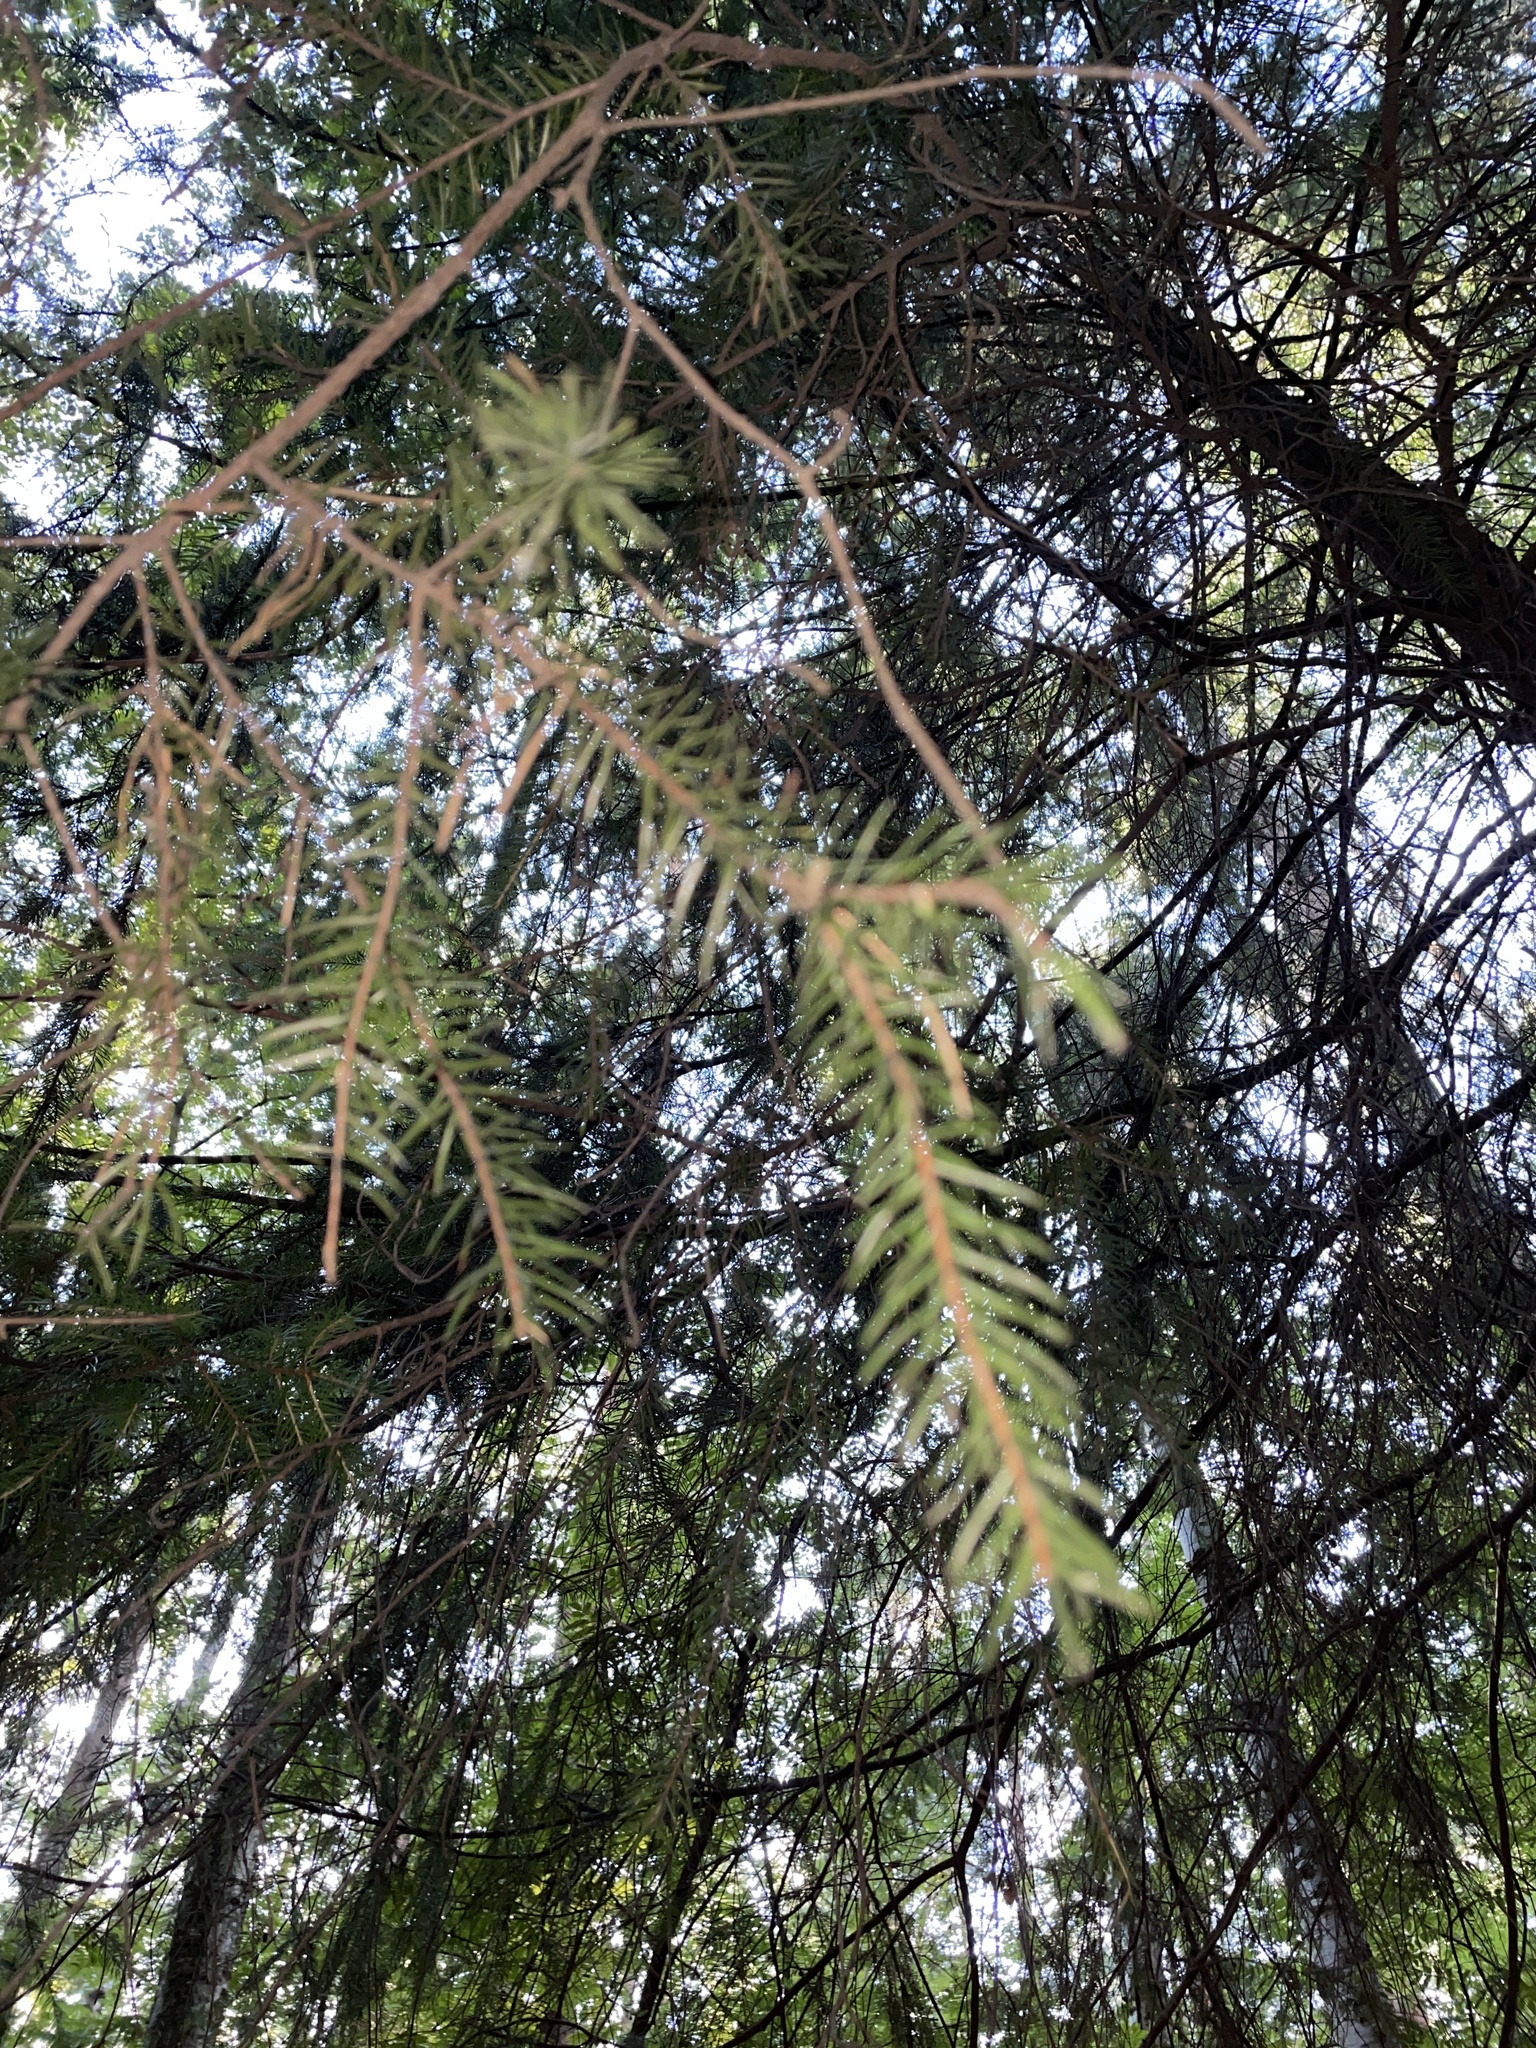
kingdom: Plantae
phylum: Tracheophyta
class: Pinopsida
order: Pinales
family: Pinaceae
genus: Picea
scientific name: Picea
